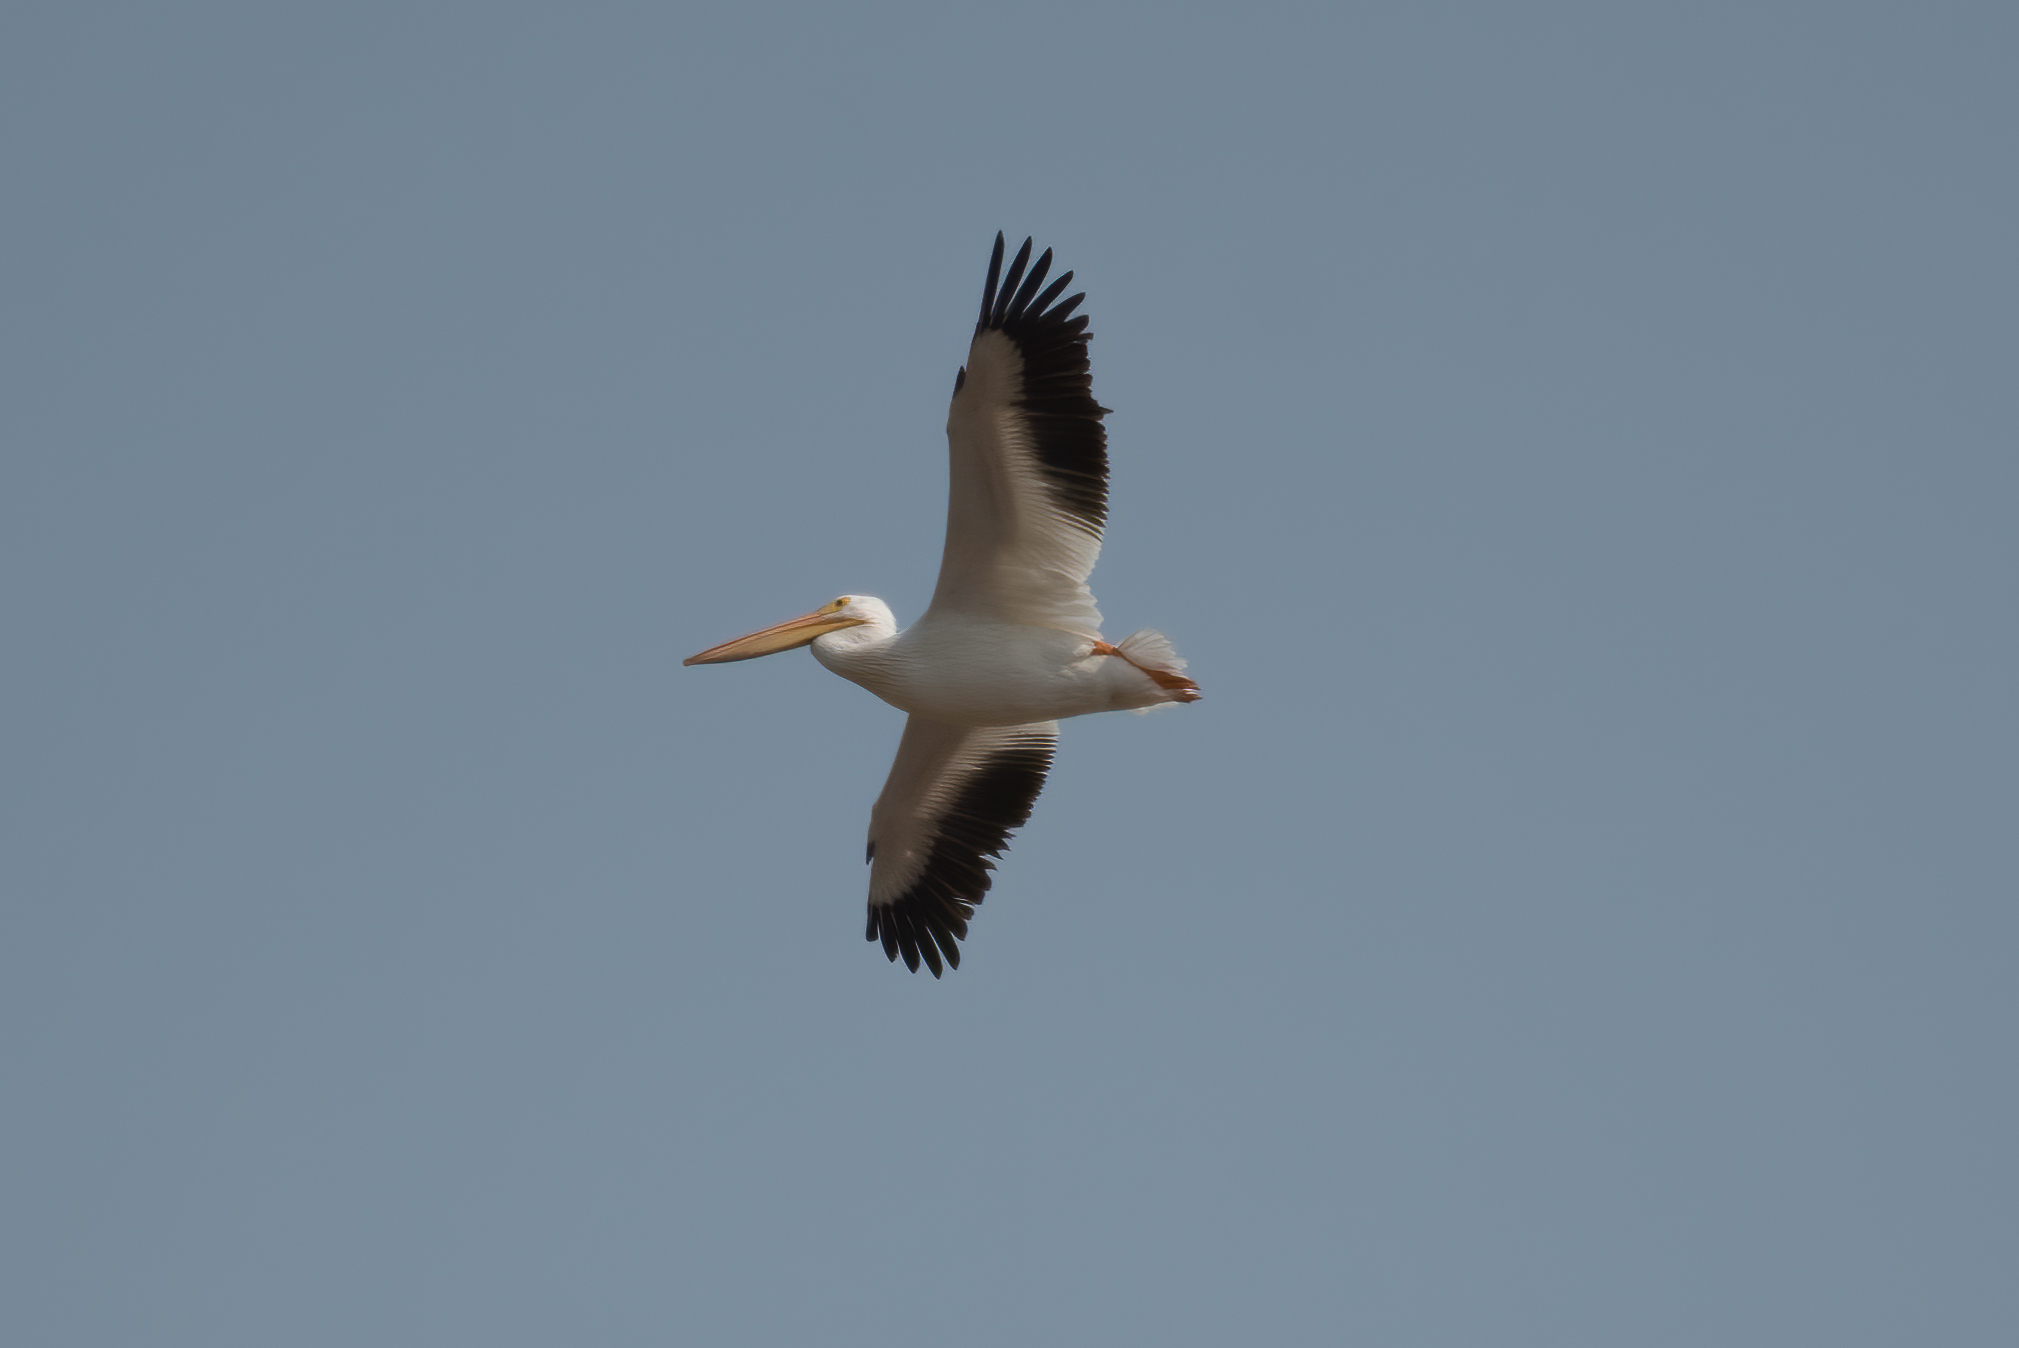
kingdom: Animalia
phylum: Chordata
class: Aves
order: Pelecaniformes
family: Pelecanidae
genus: Pelecanus
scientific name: Pelecanus erythrorhynchos
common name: American white pelican
